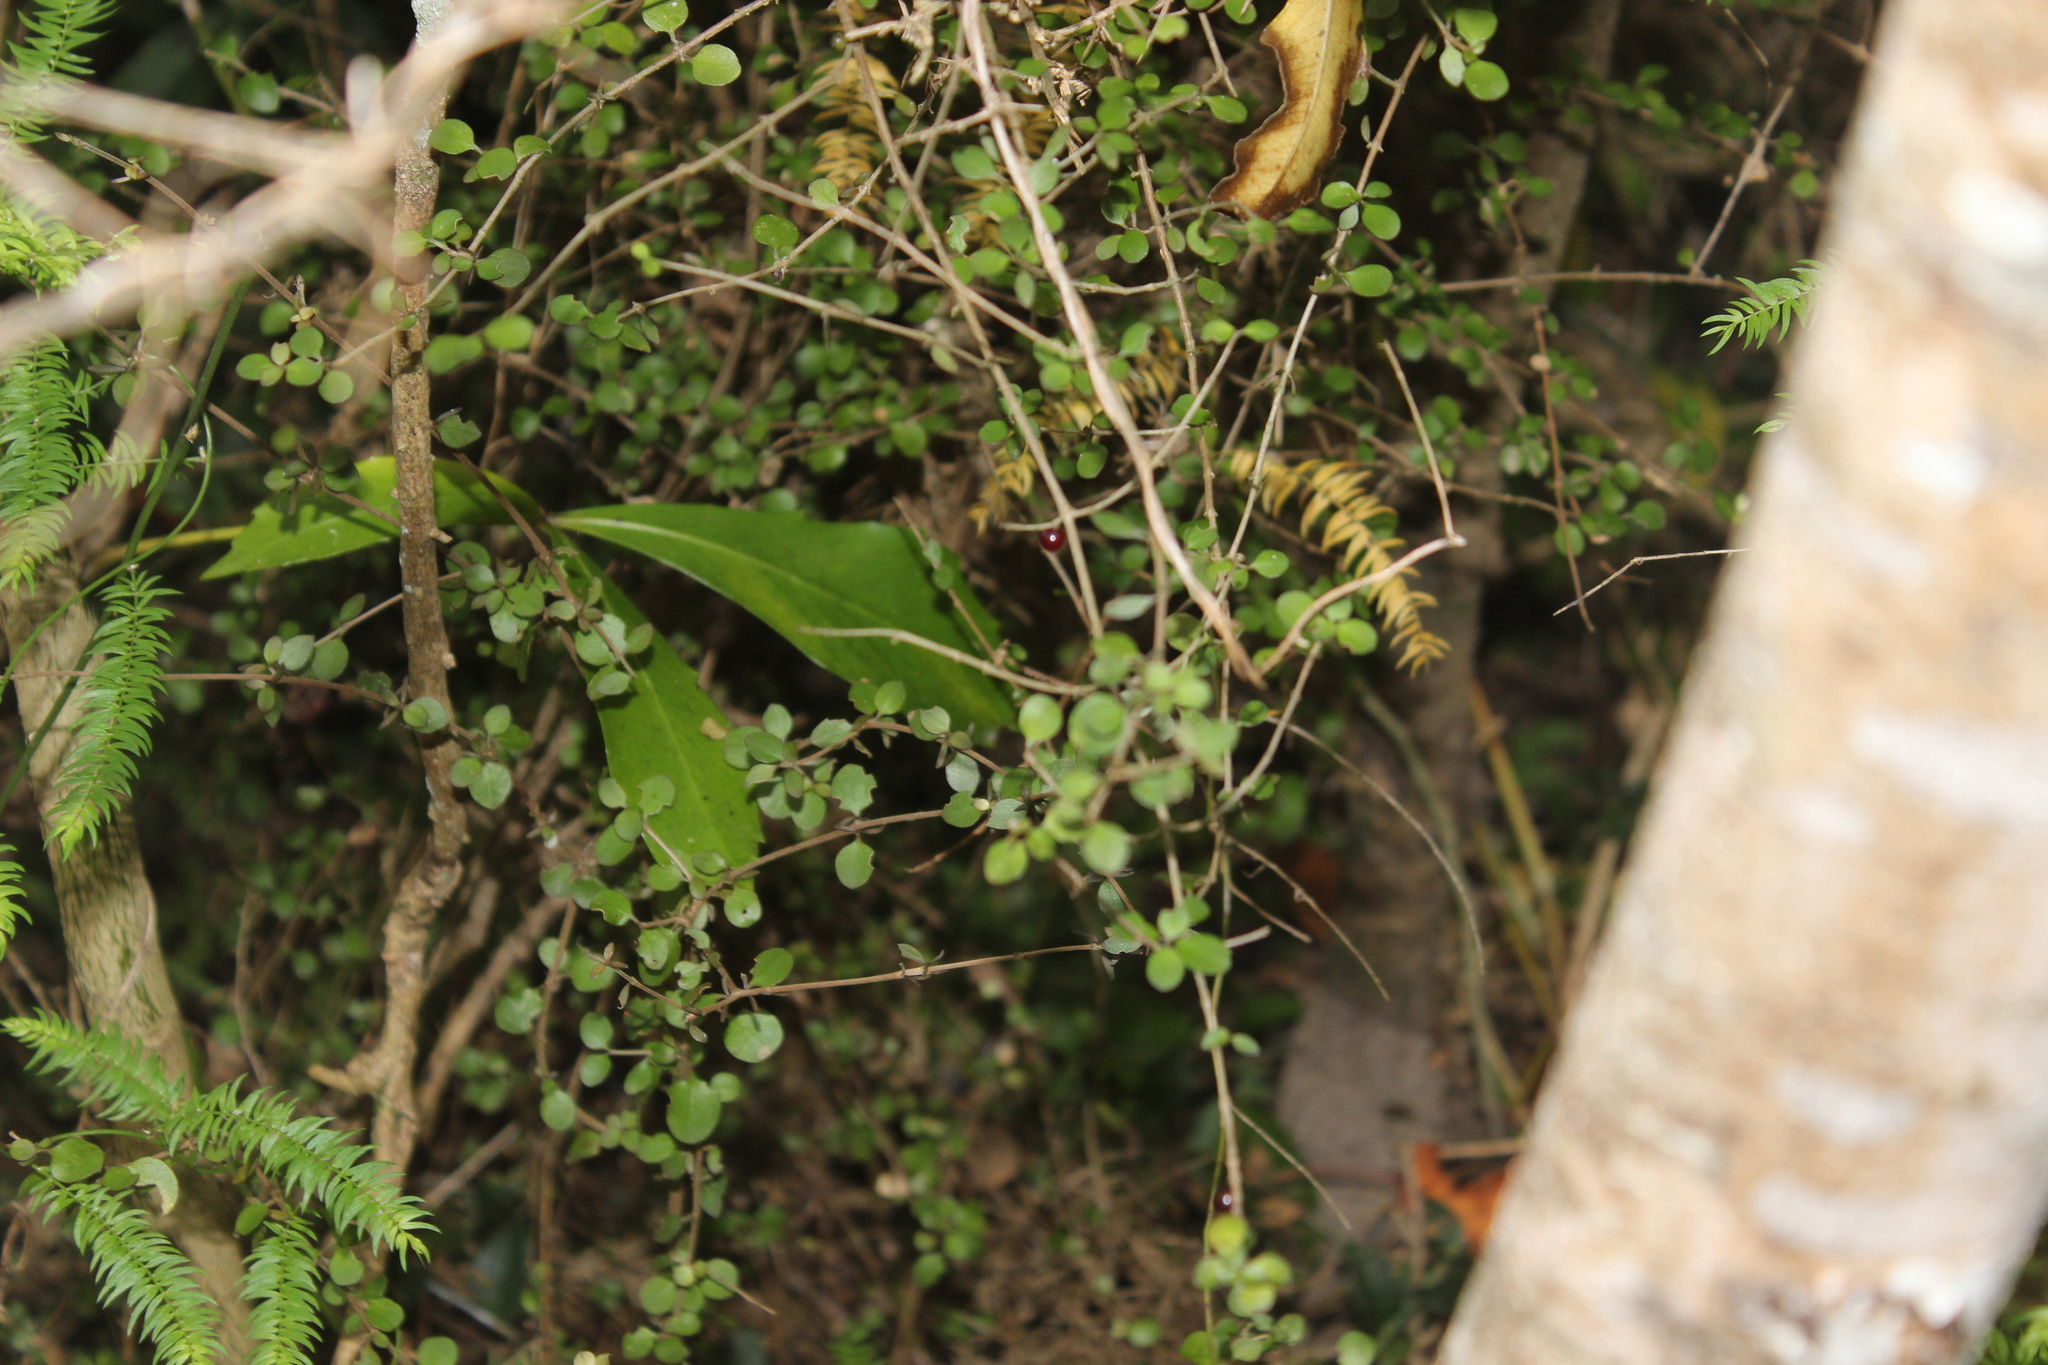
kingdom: Plantae
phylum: Tracheophyta
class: Magnoliopsida
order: Gentianales
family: Rubiaceae
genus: Coprosma
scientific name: Coprosma rhamnoides
